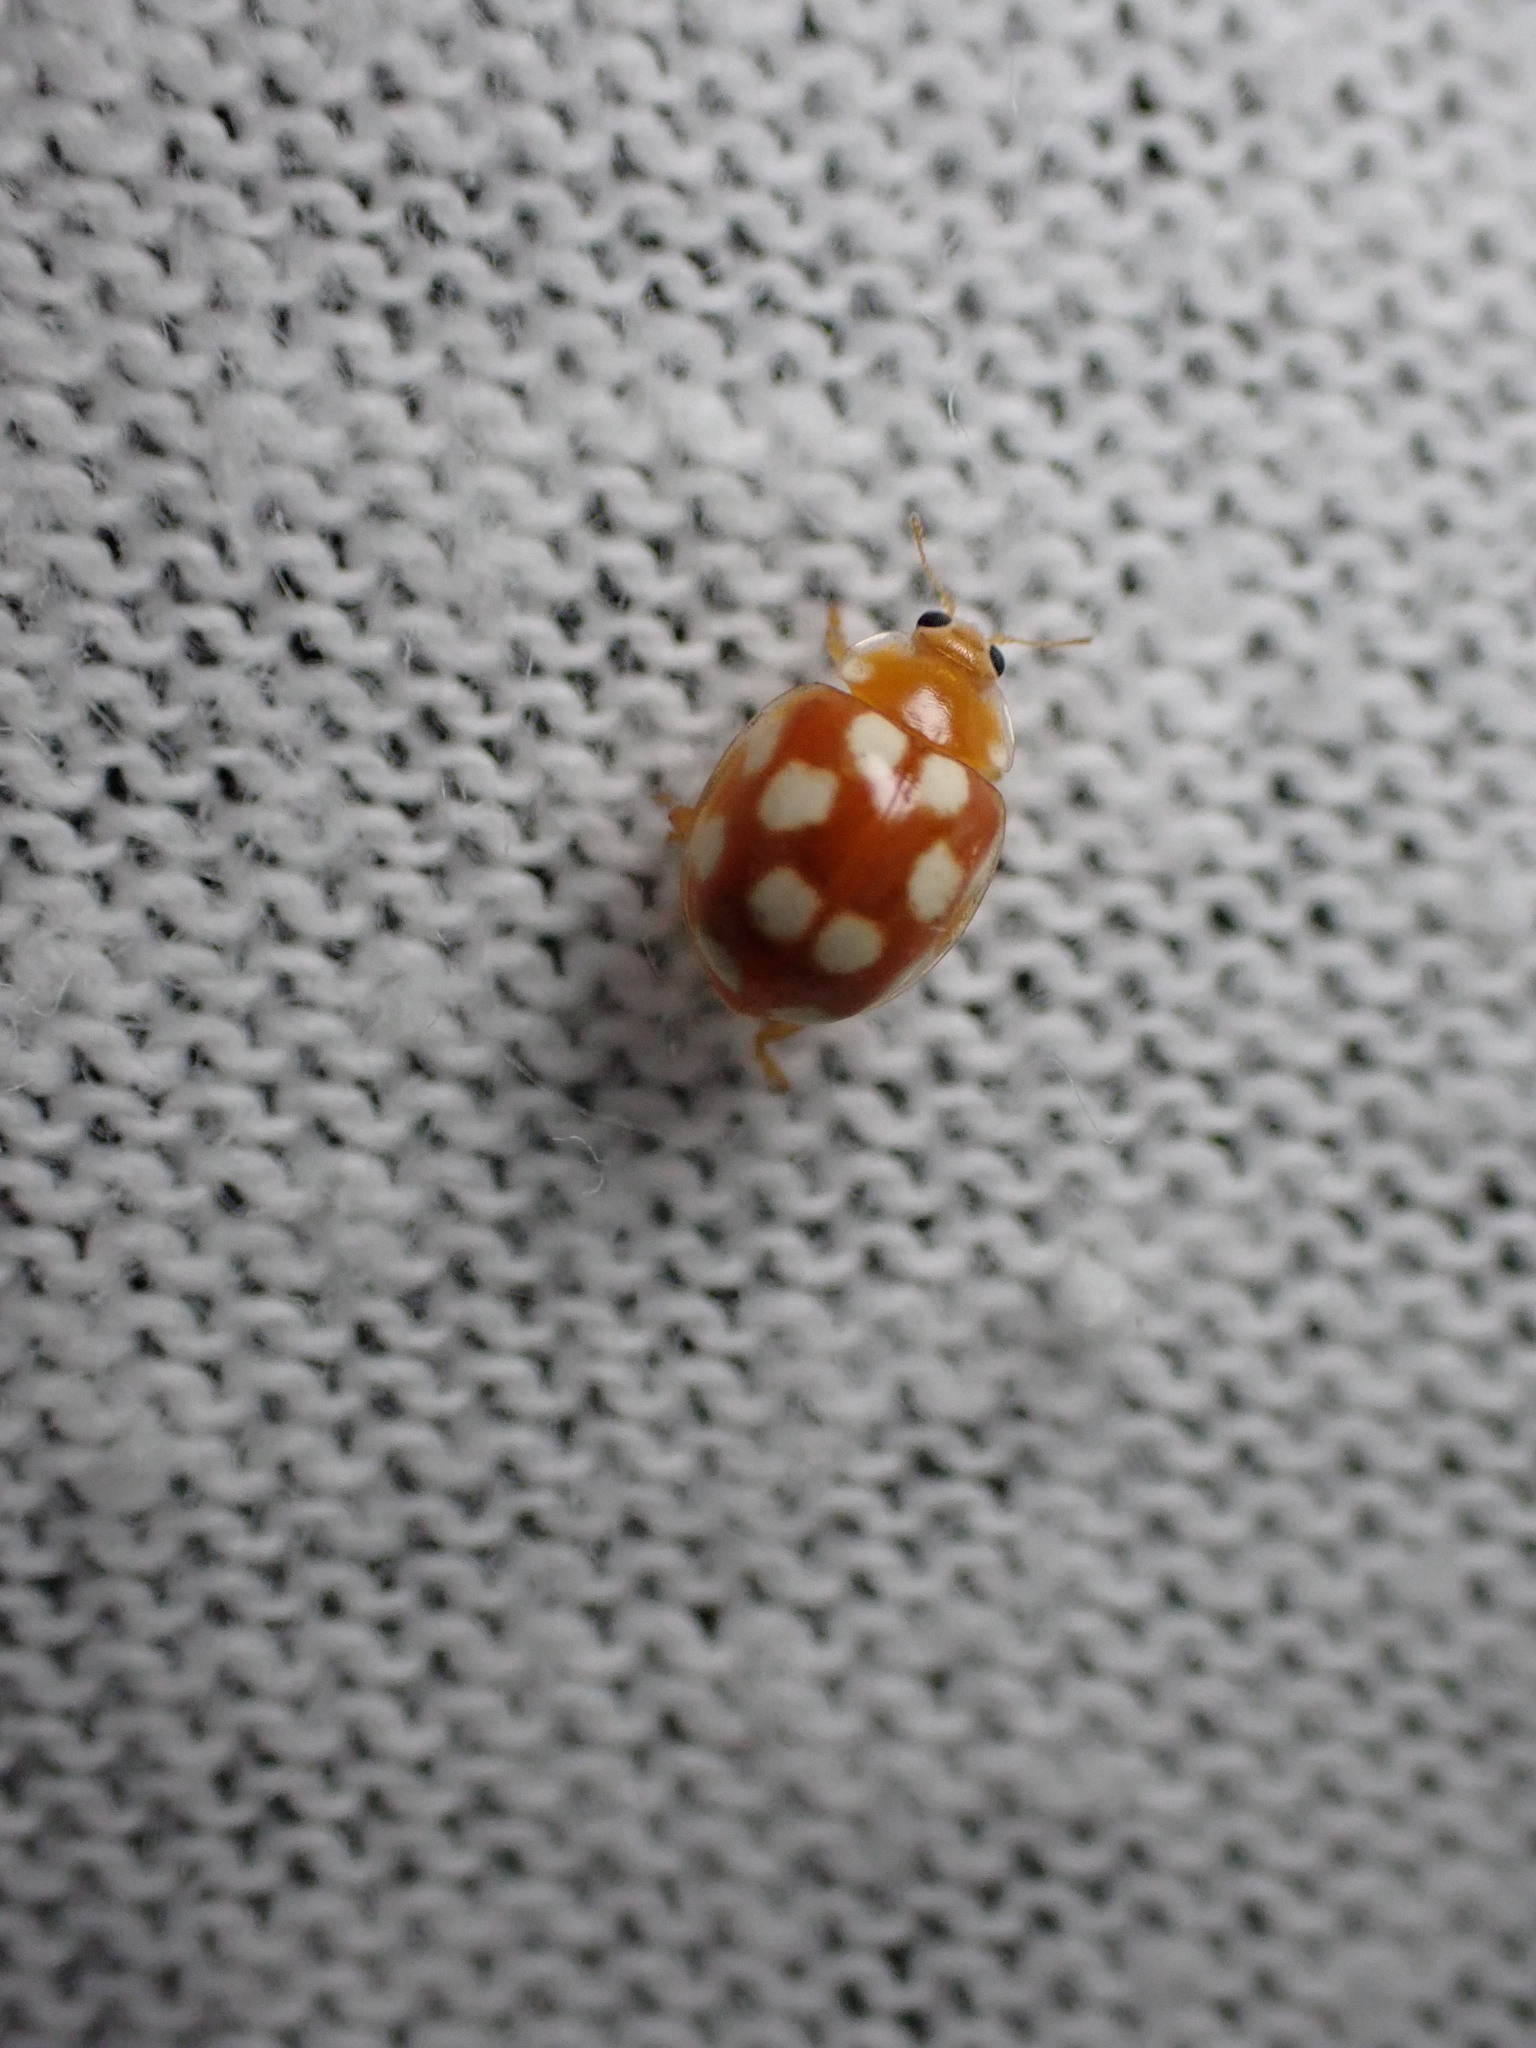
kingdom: Animalia
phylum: Arthropoda
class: Insecta
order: Coleoptera
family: Coccinellidae
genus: Vibidia
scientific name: Vibidia duodecimguttata
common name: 12-spot ladybird
